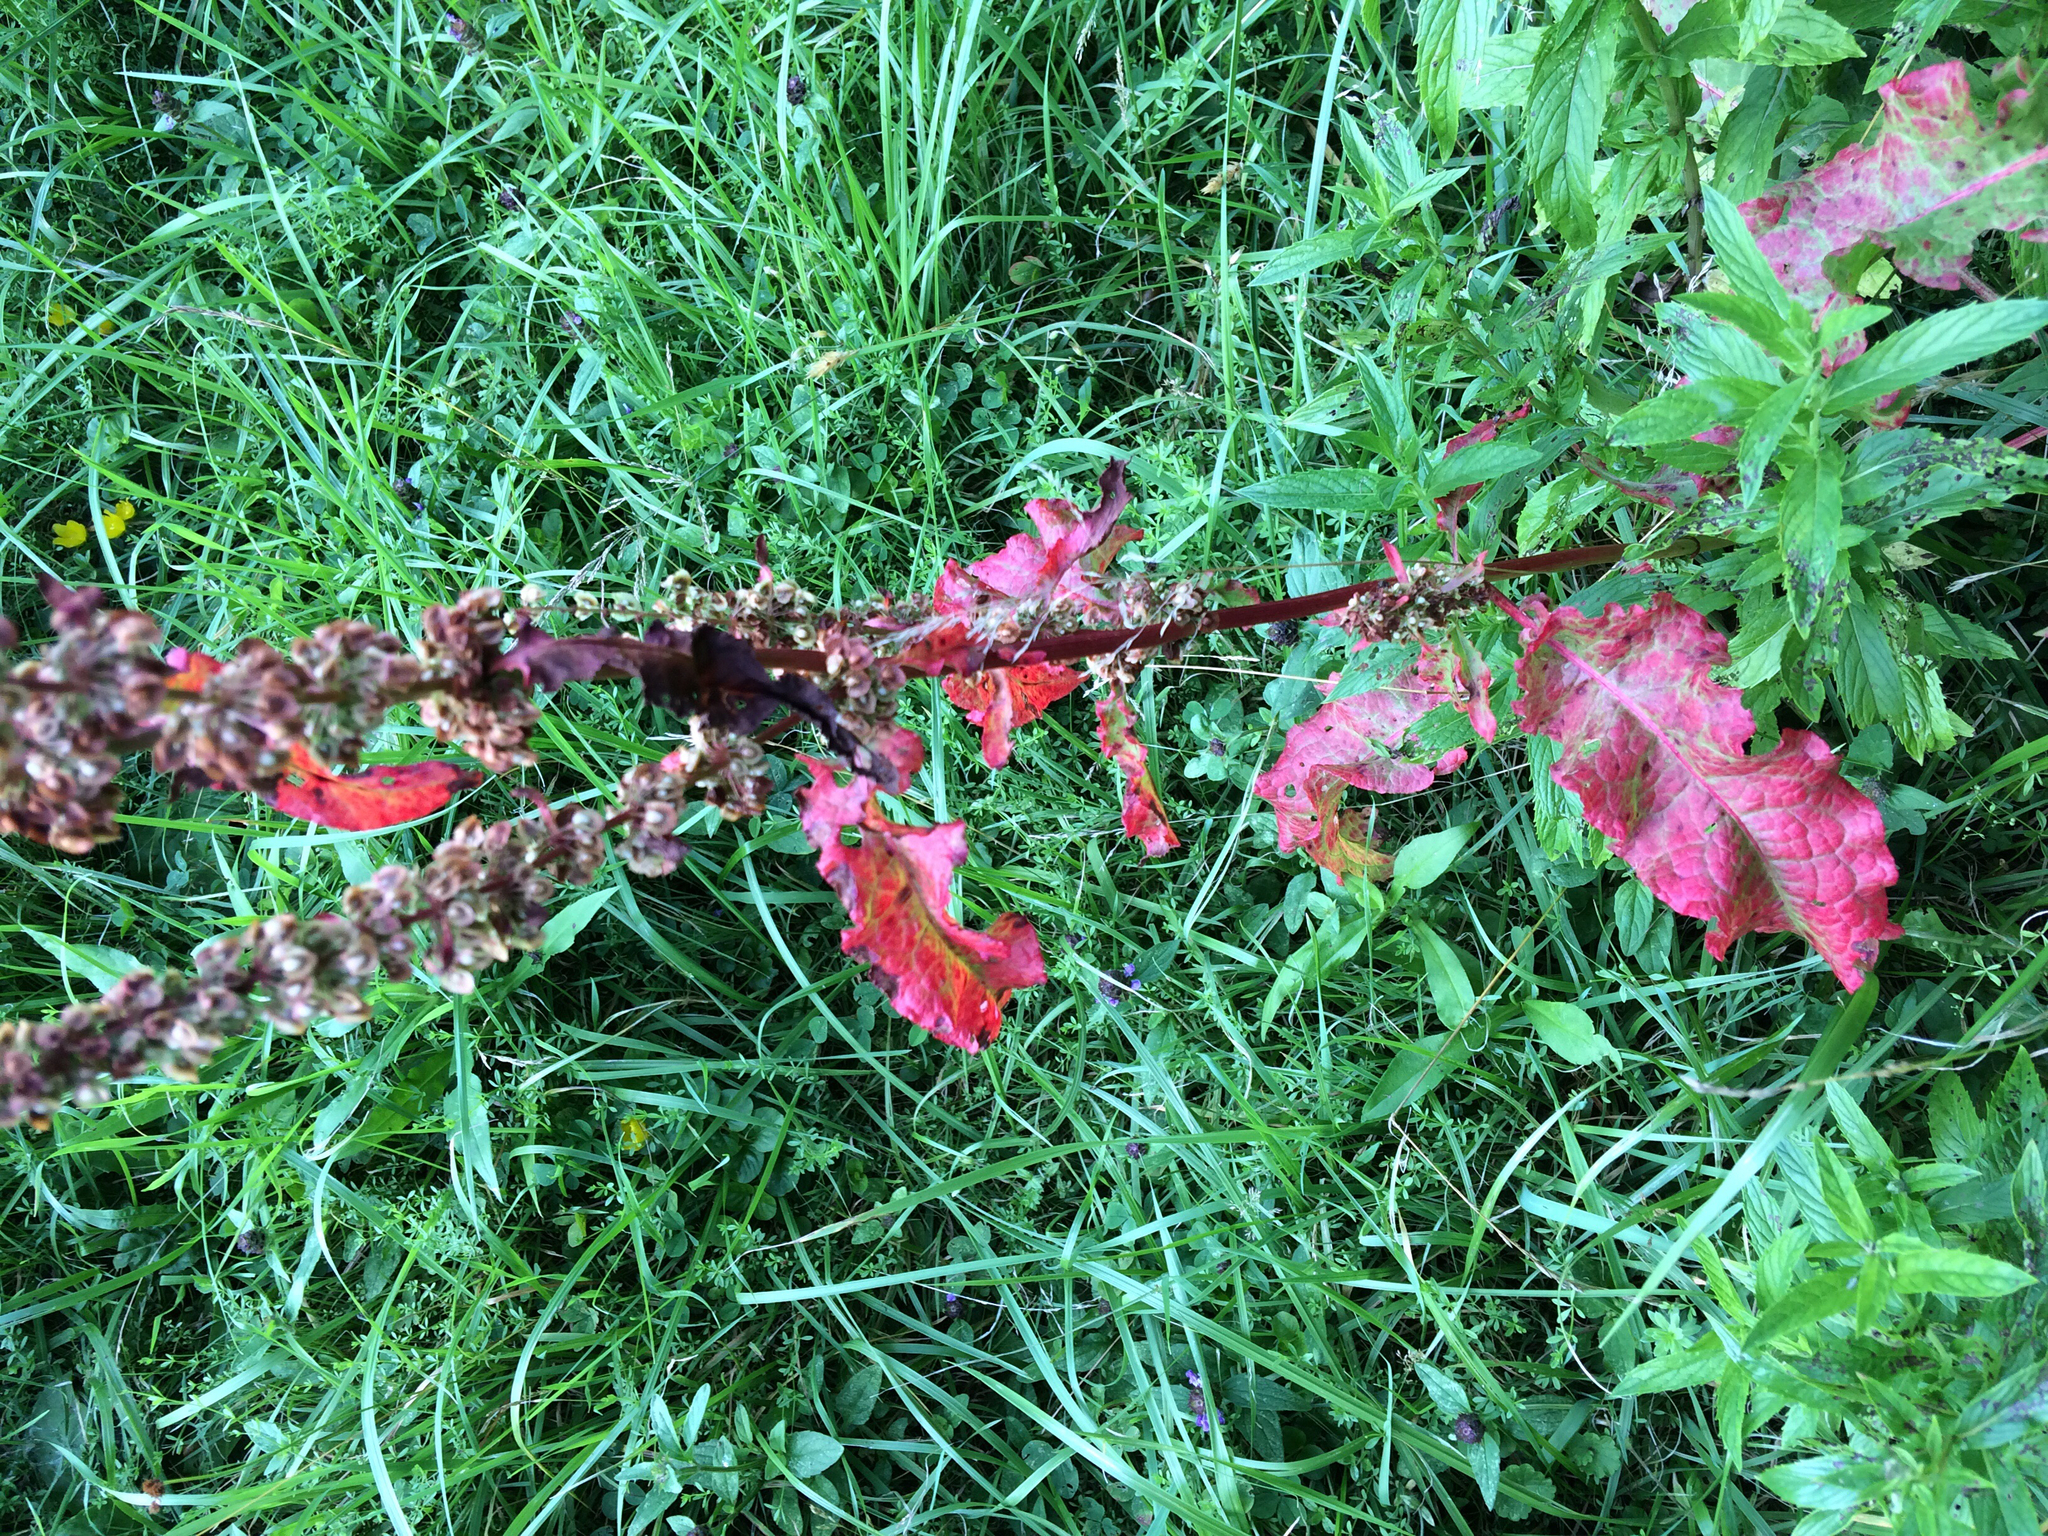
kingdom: Plantae
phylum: Tracheophyta
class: Magnoliopsida
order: Caryophyllales
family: Polygonaceae
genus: Rumex
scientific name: Rumex crispus
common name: Curled dock
